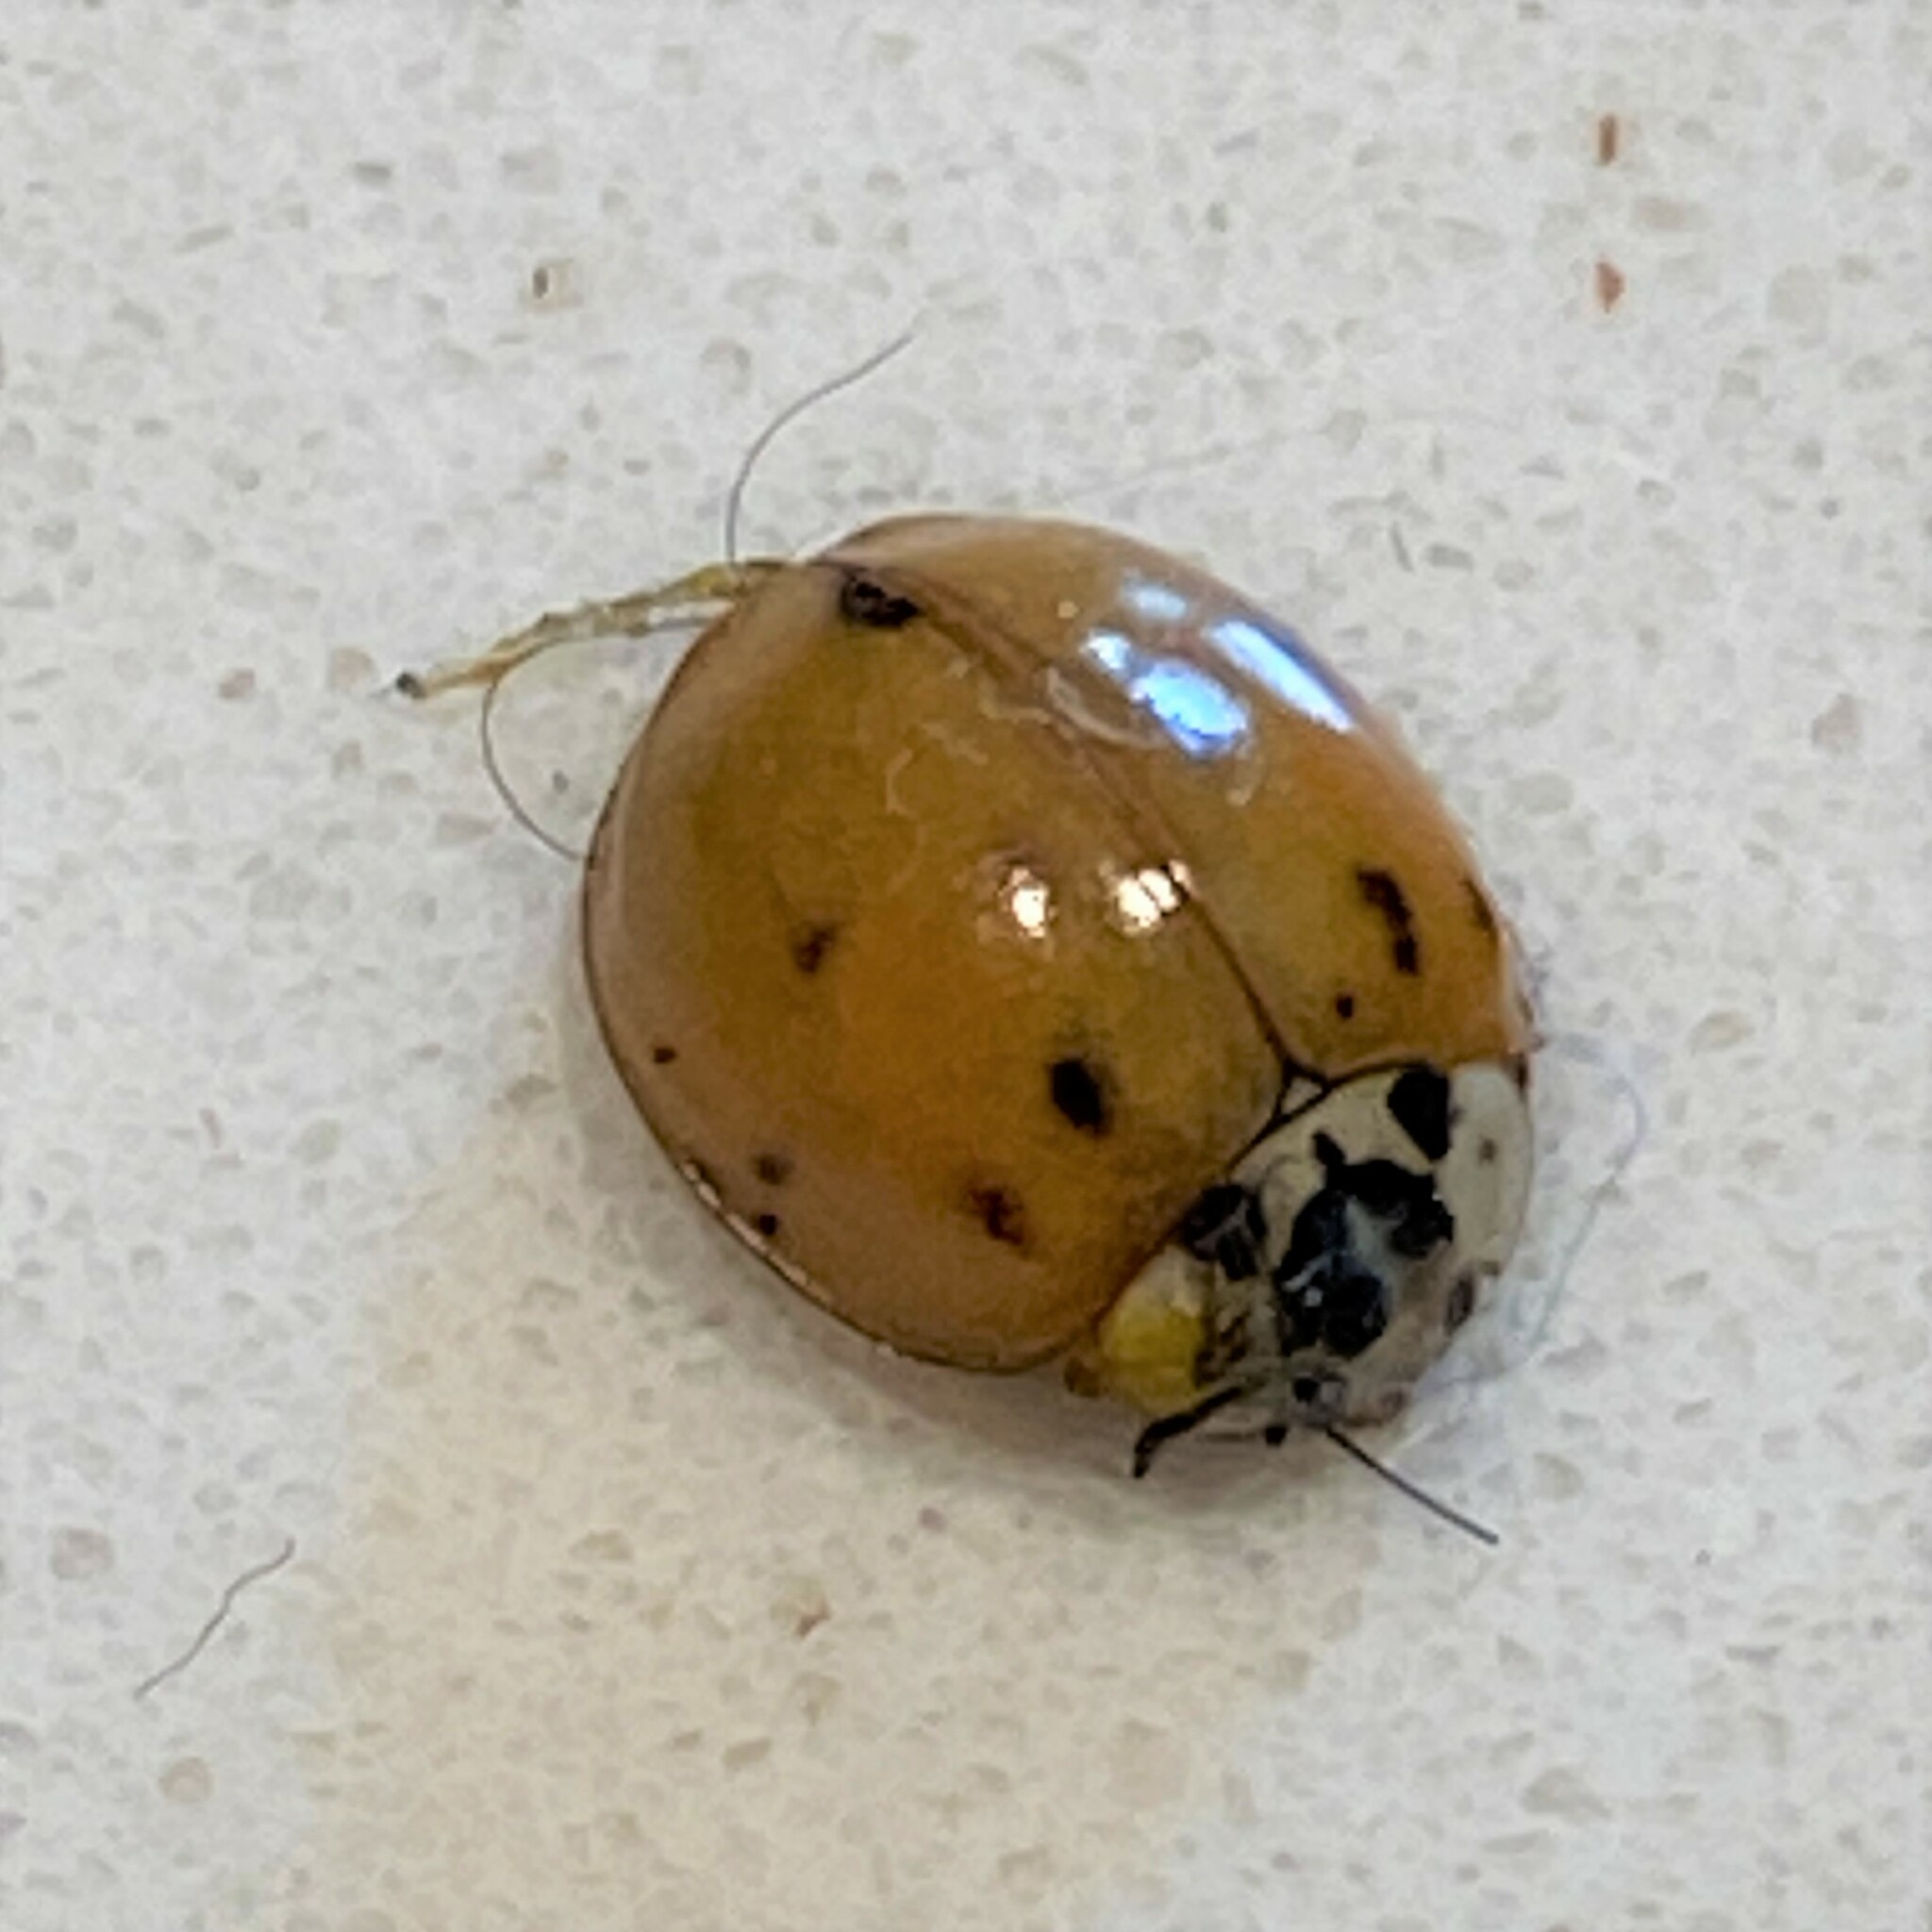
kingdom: Animalia
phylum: Arthropoda
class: Insecta
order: Coleoptera
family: Coccinellidae
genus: Harmonia
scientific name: Harmonia axyridis
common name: Harlequin ladybird
